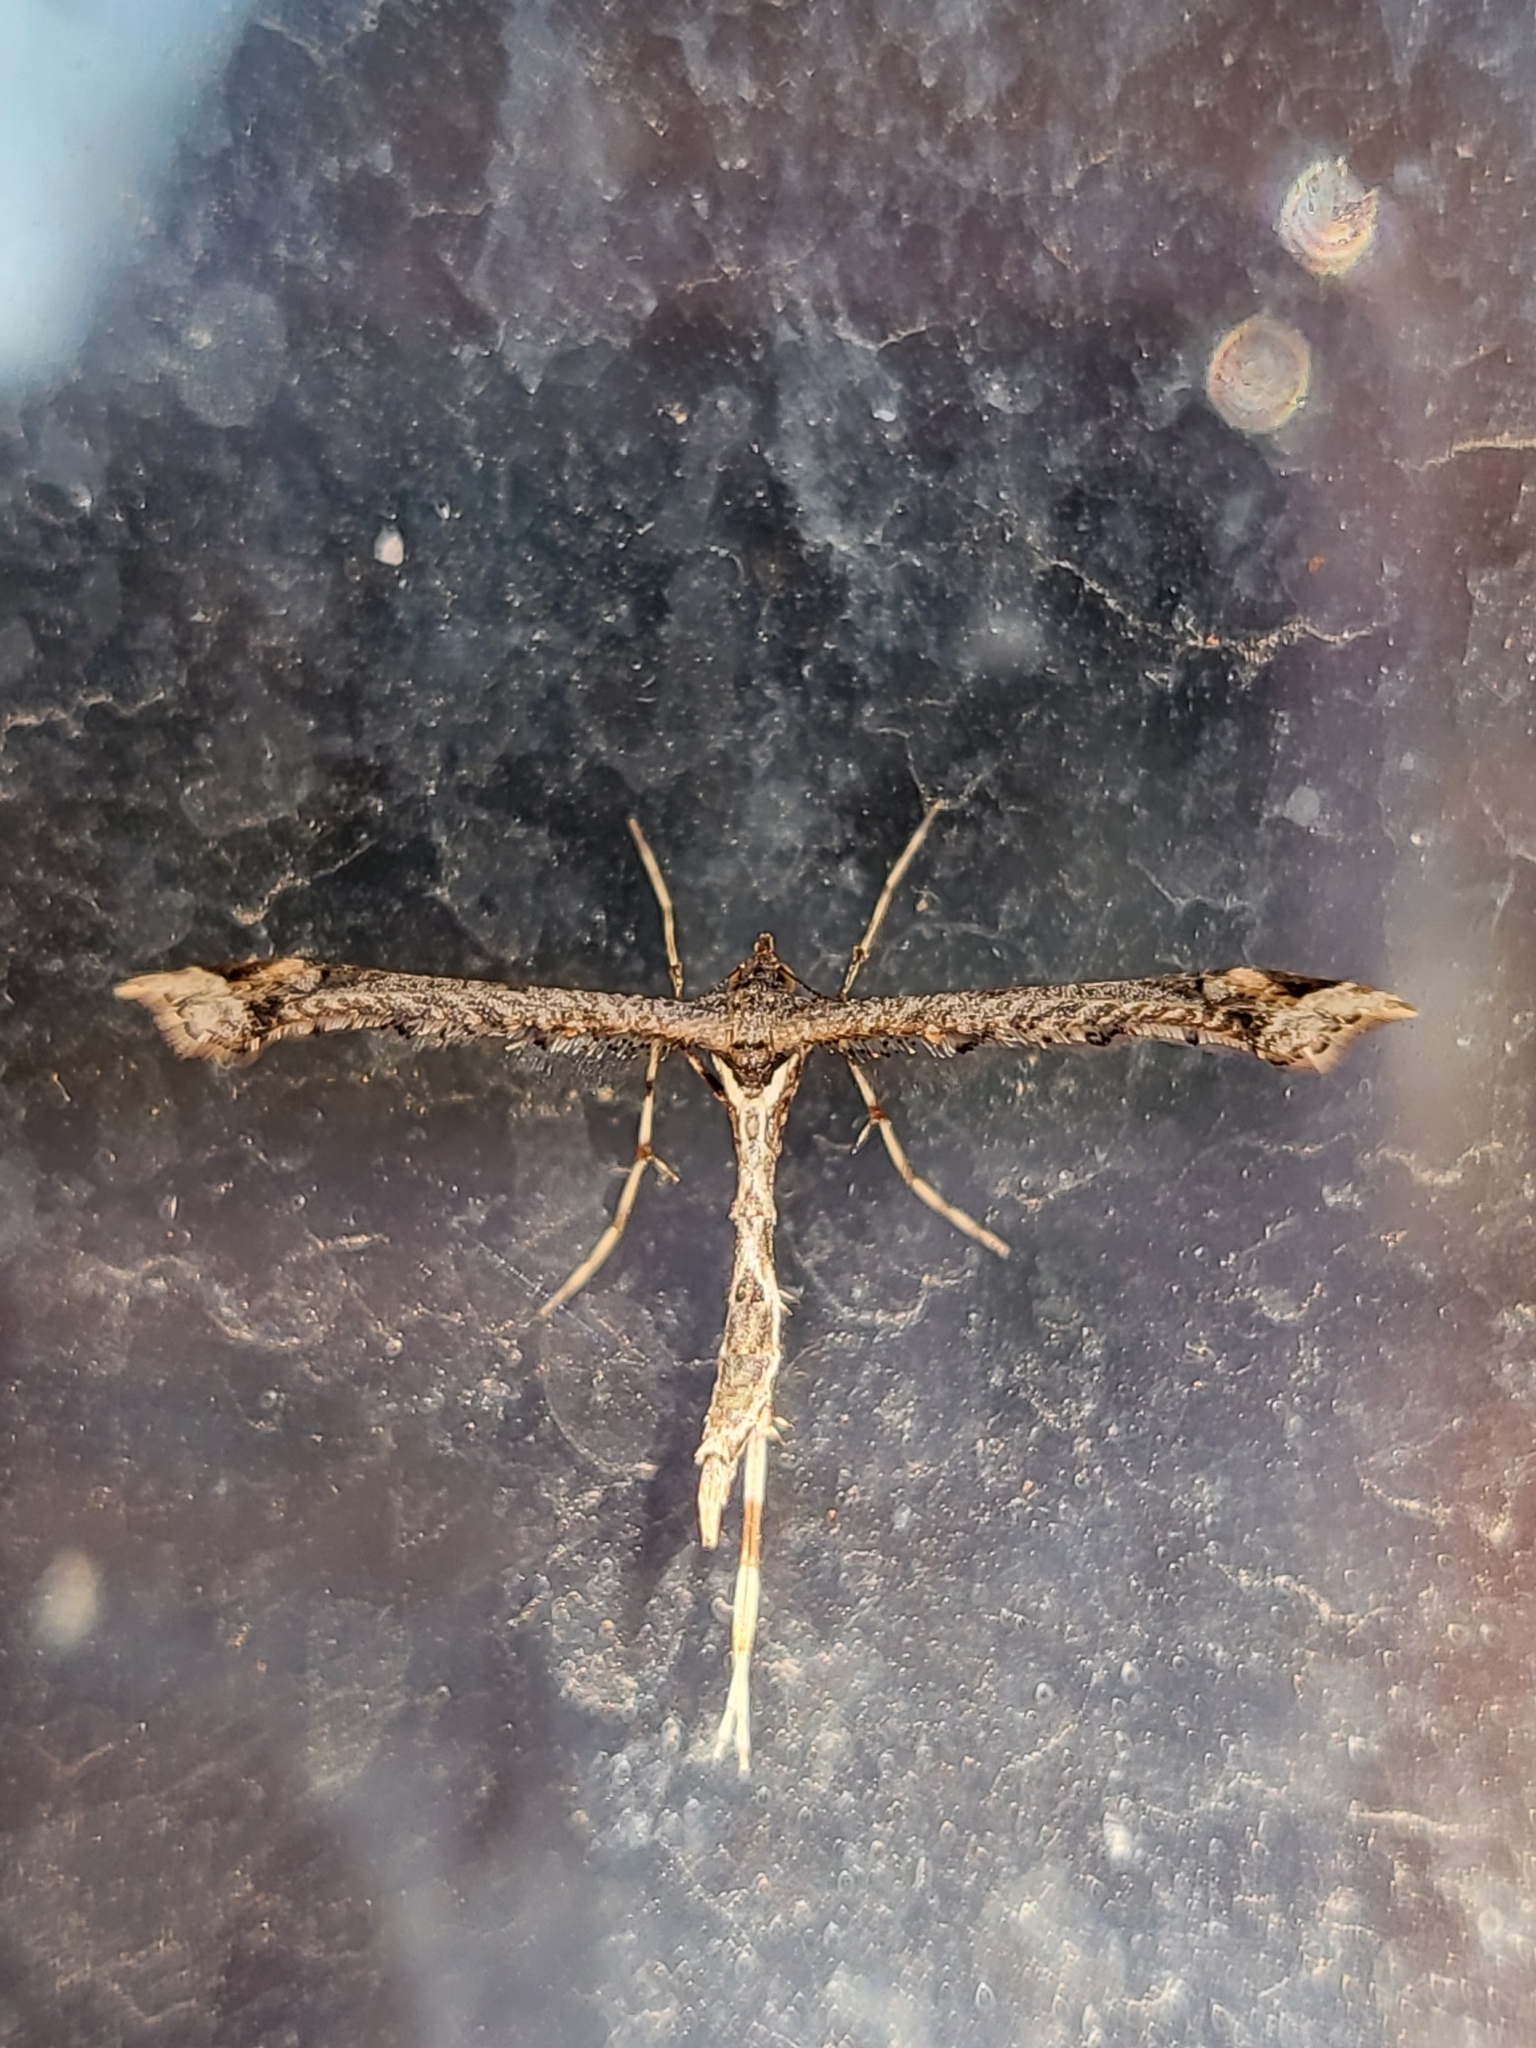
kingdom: Animalia
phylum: Arthropoda
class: Insecta
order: Lepidoptera
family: Pterophoridae
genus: Anstenoptilia
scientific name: Anstenoptilia marmarodactyla
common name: Moth
